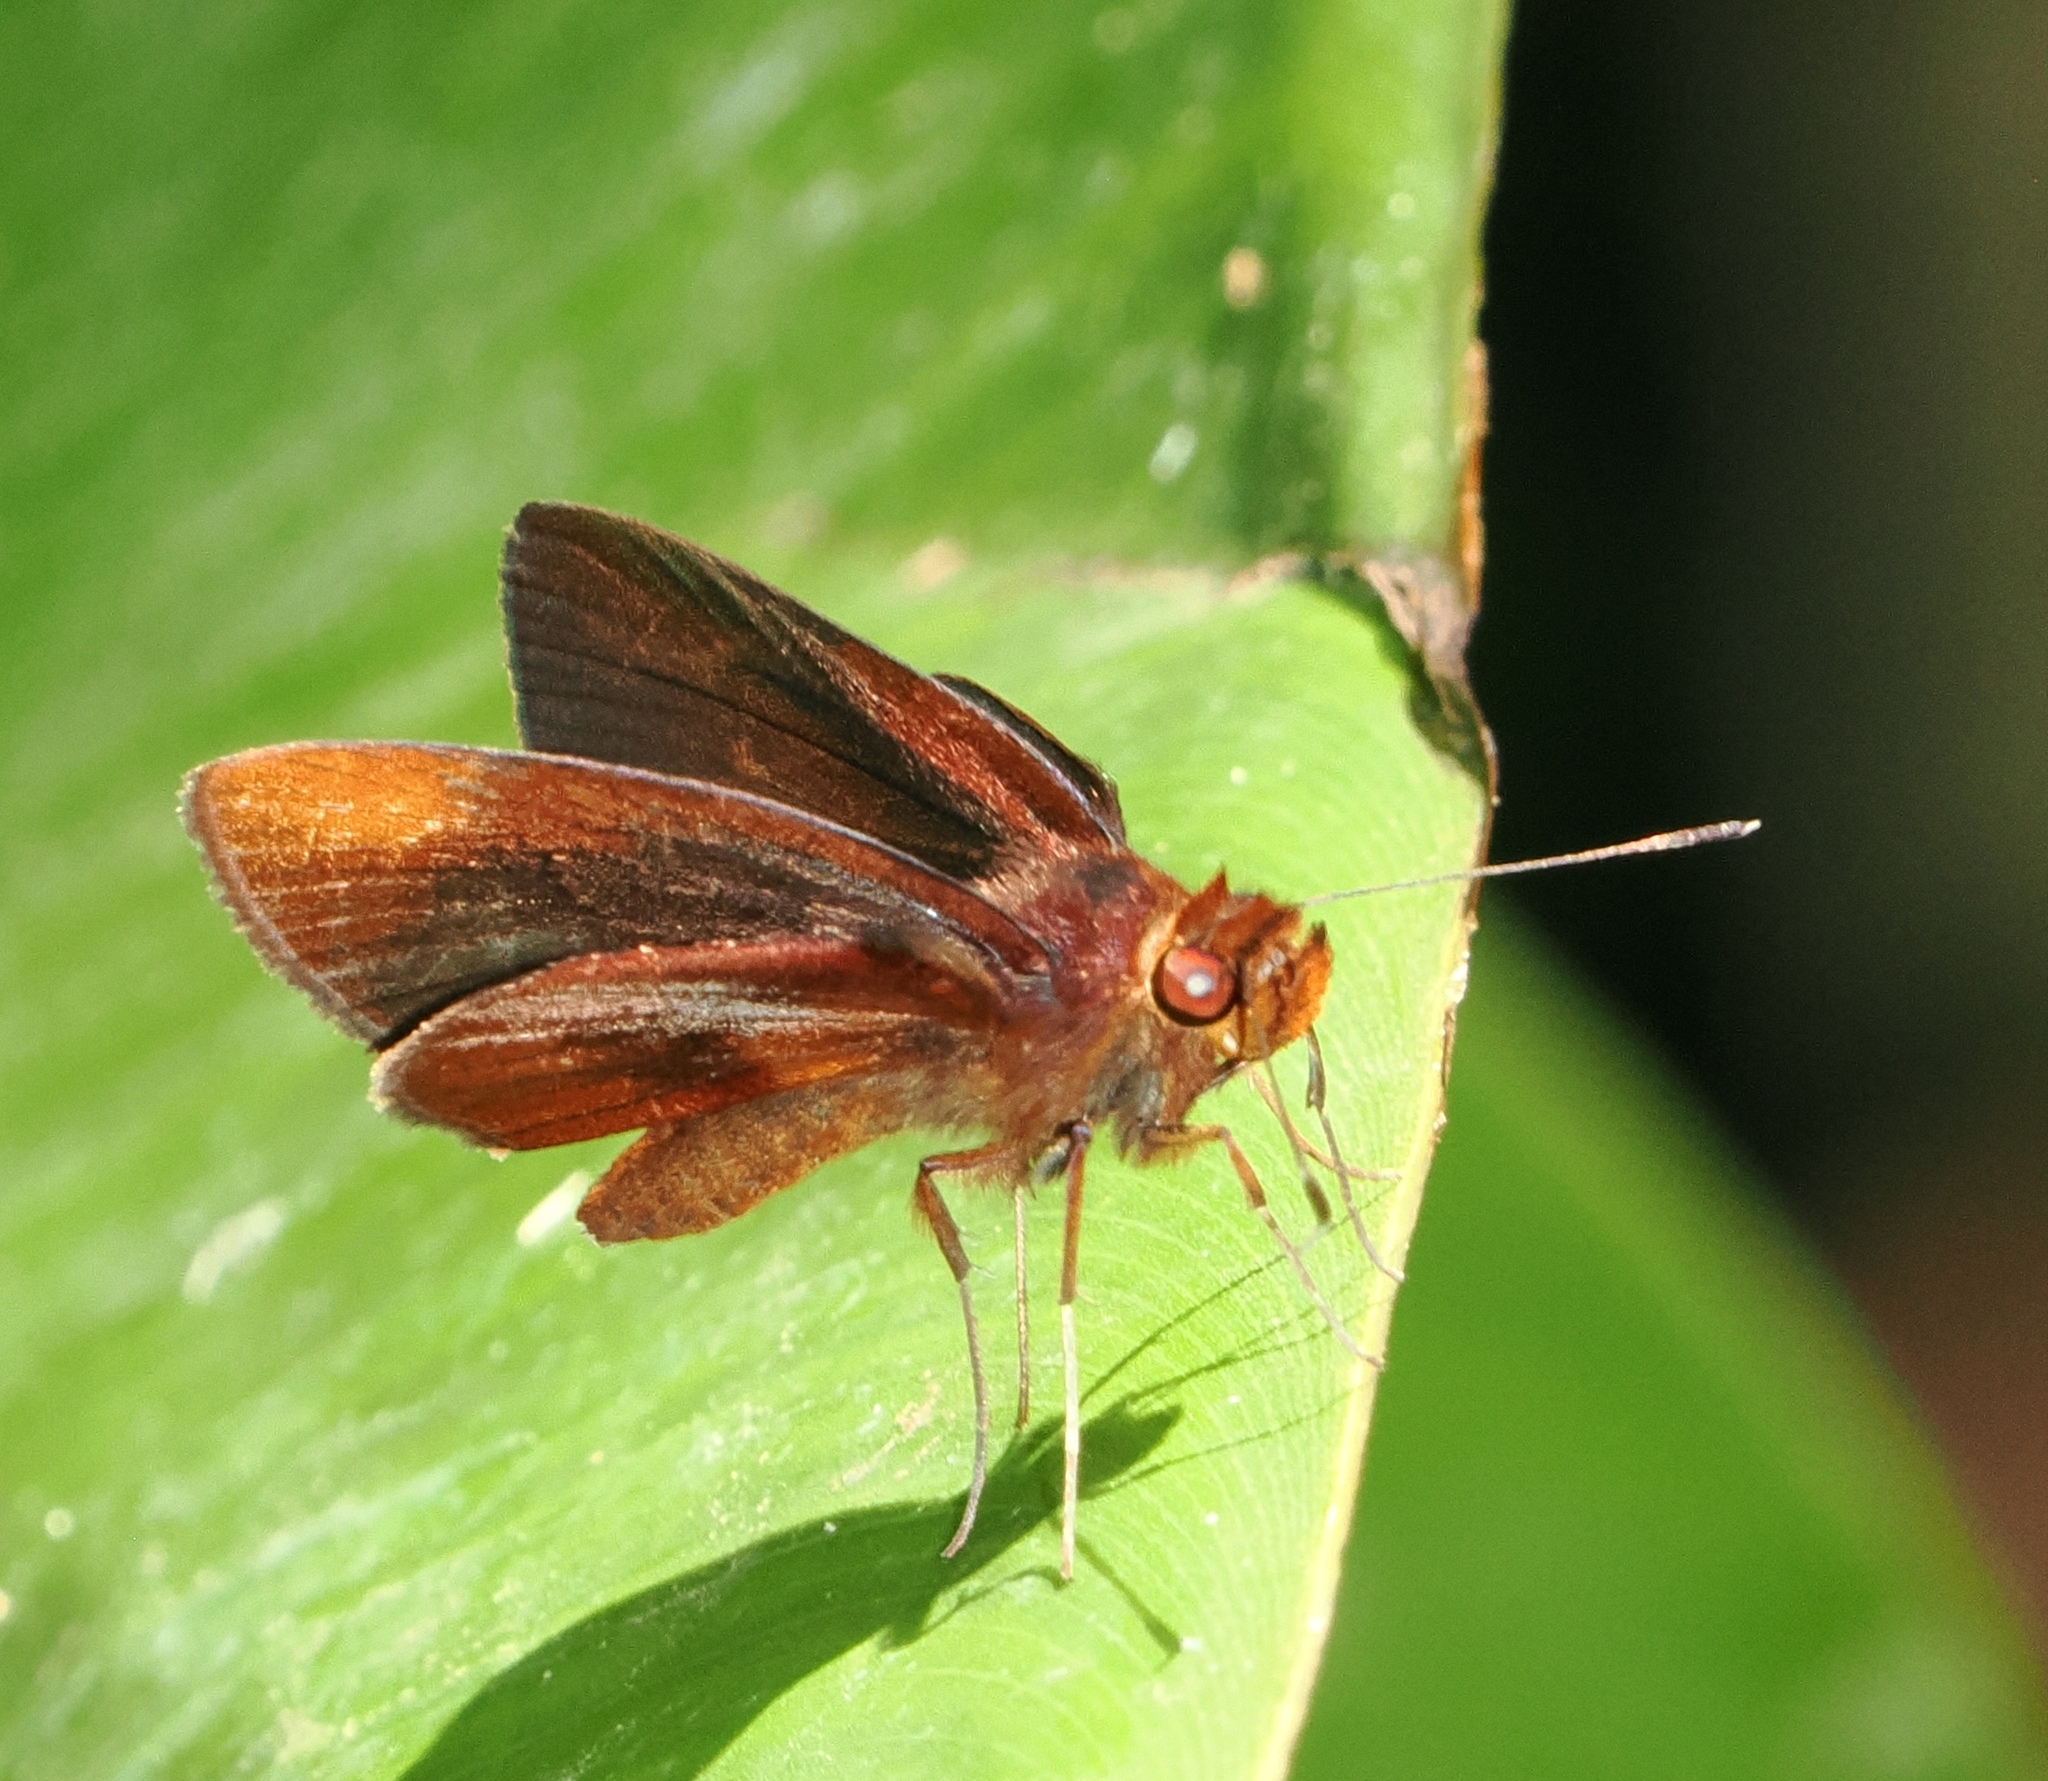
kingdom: Animalia
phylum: Arthropoda
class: Insecta
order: Lepidoptera
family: Hesperiidae
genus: Miltomiges
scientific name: Miltomiges cinnamomea
